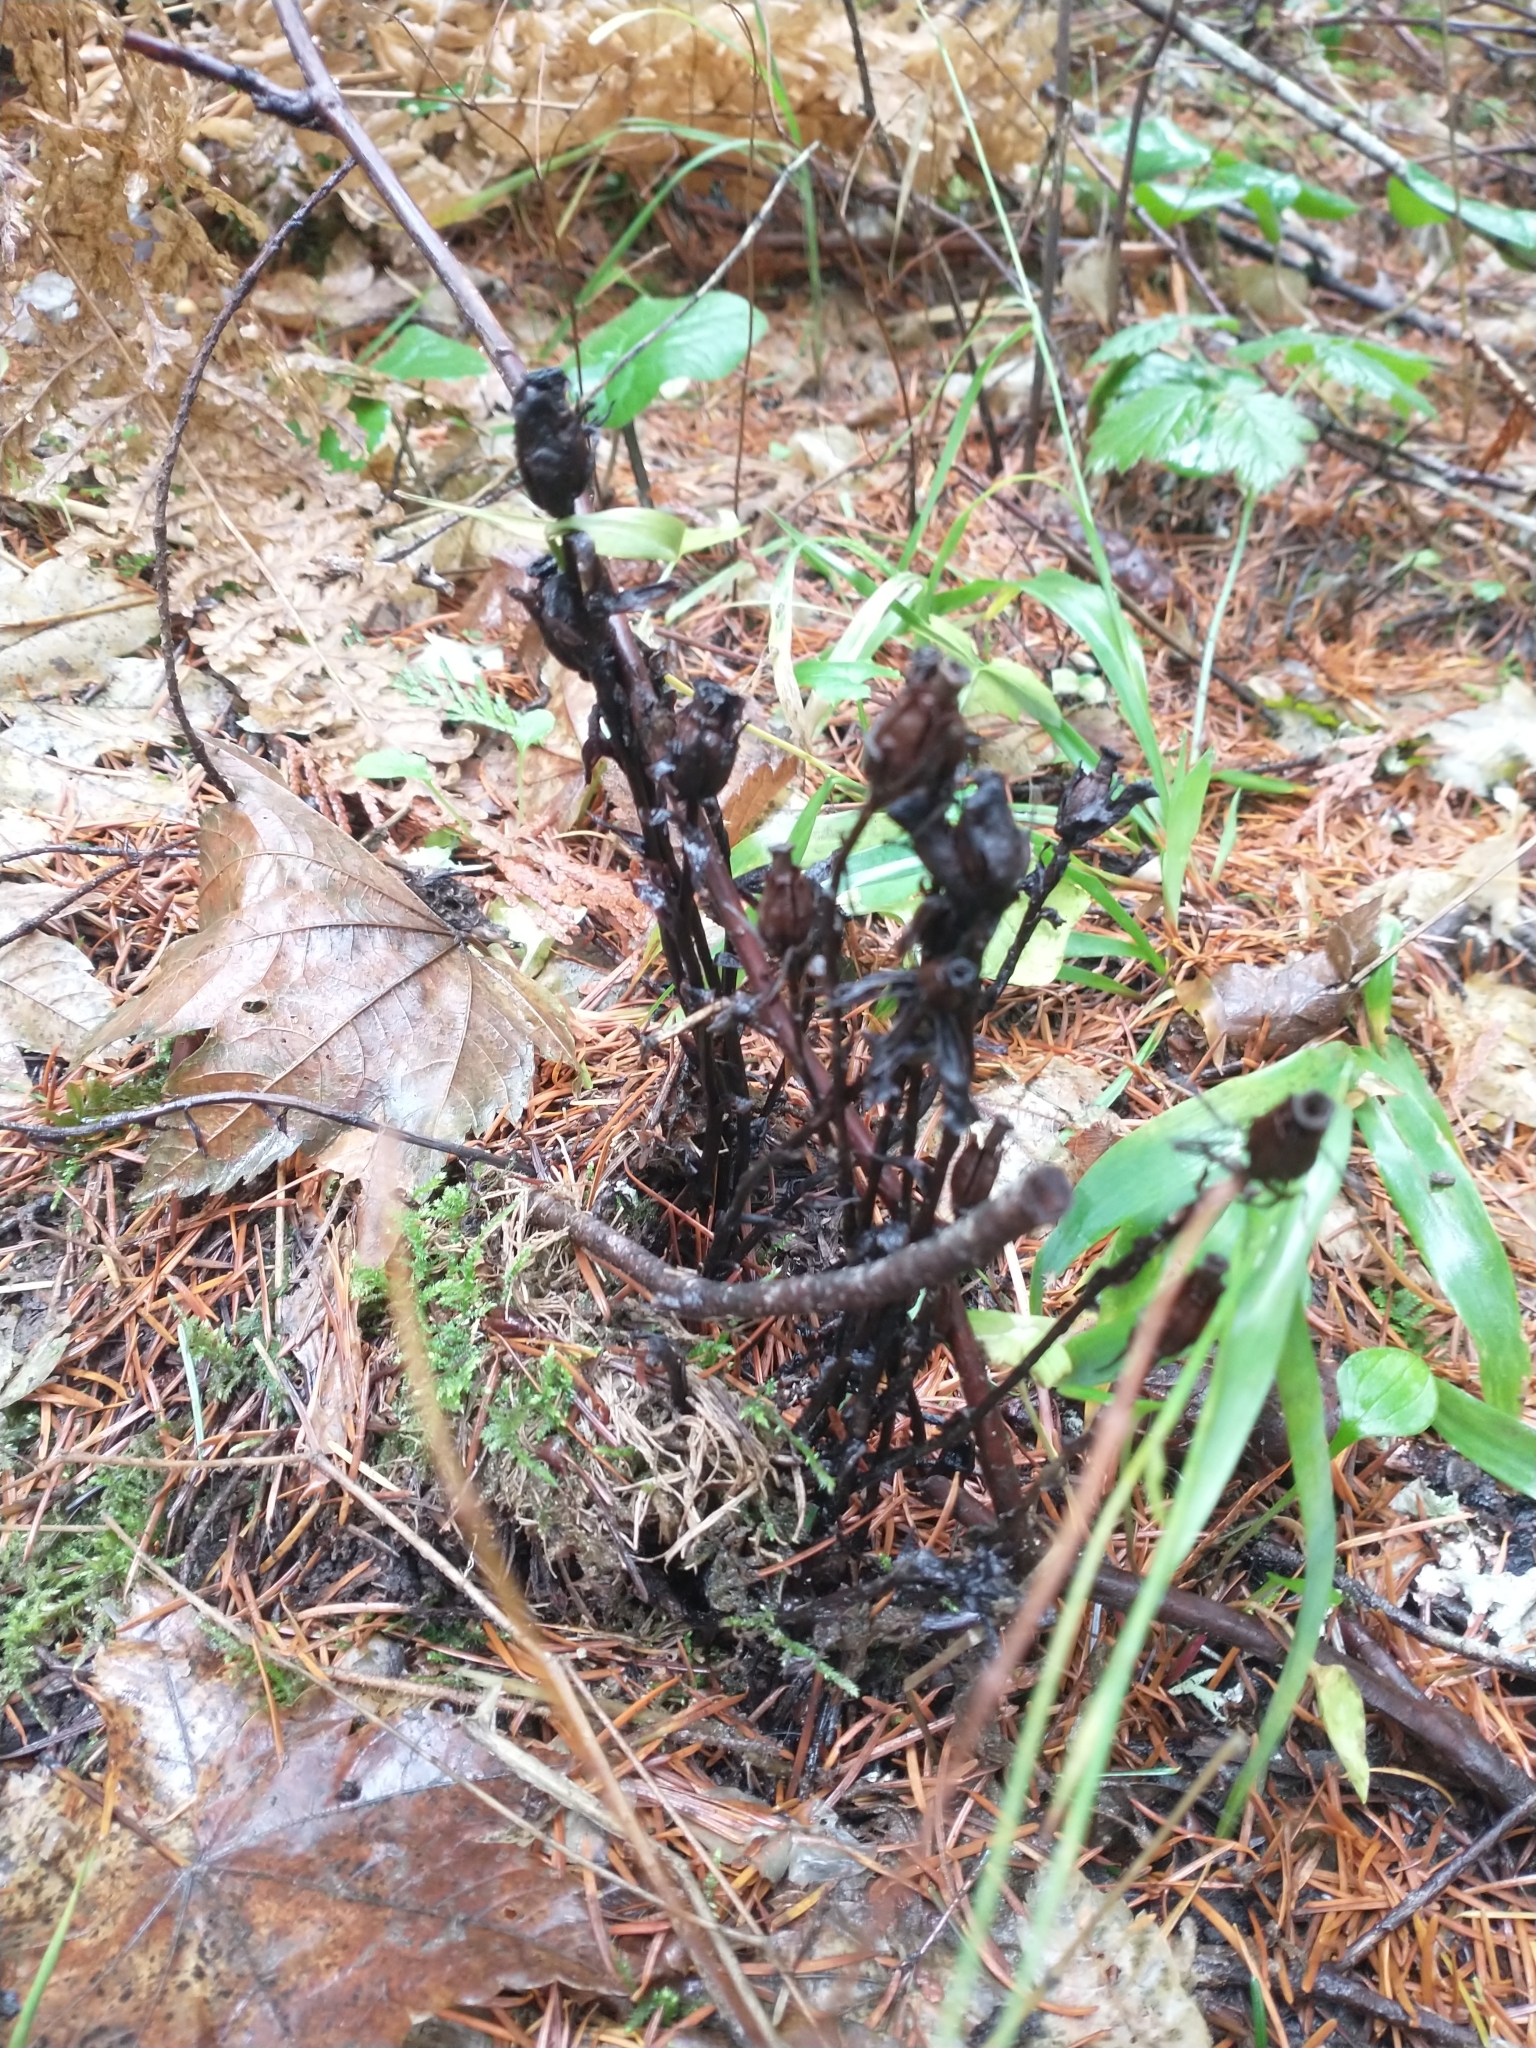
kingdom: Plantae
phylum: Tracheophyta
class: Magnoliopsida
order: Ericales
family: Ericaceae
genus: Monotropa
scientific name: Monotropa uniflora
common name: Convulsion root
